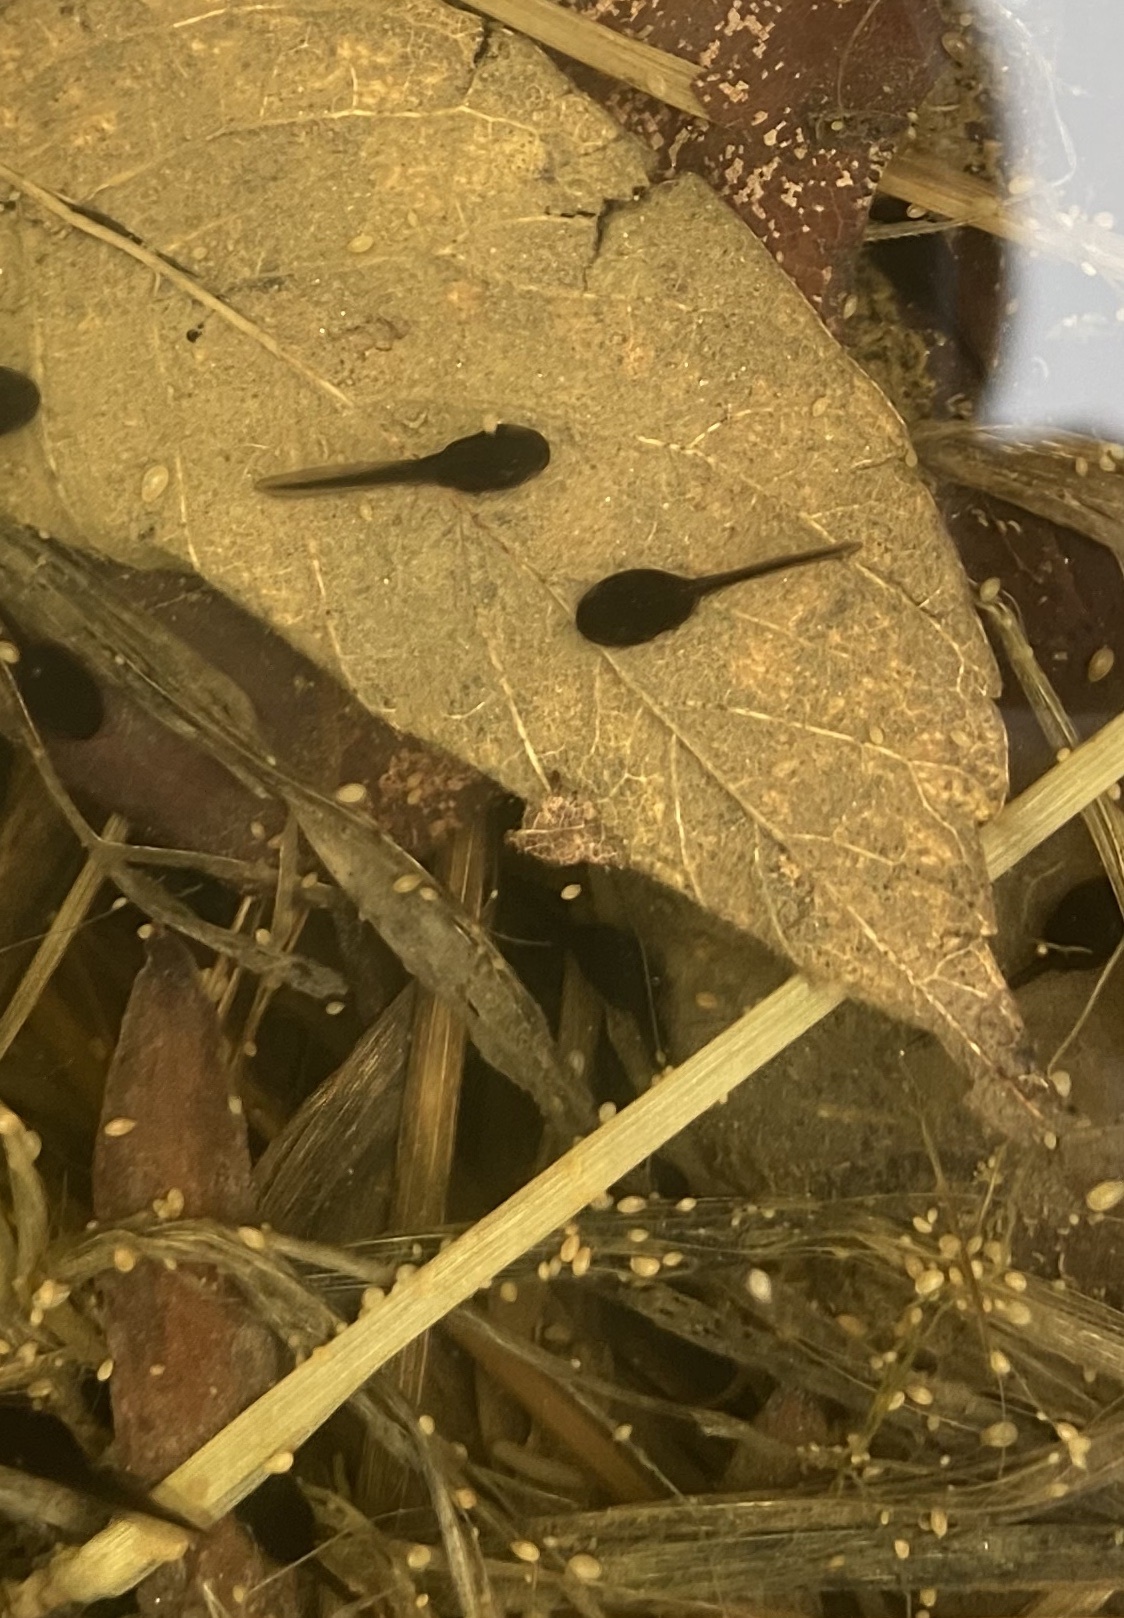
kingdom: Animalia
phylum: Chordata
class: Amphibia
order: Anura
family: Bufonidae
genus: Anaxyrus
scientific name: Anaxyrus americanus
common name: American toad
